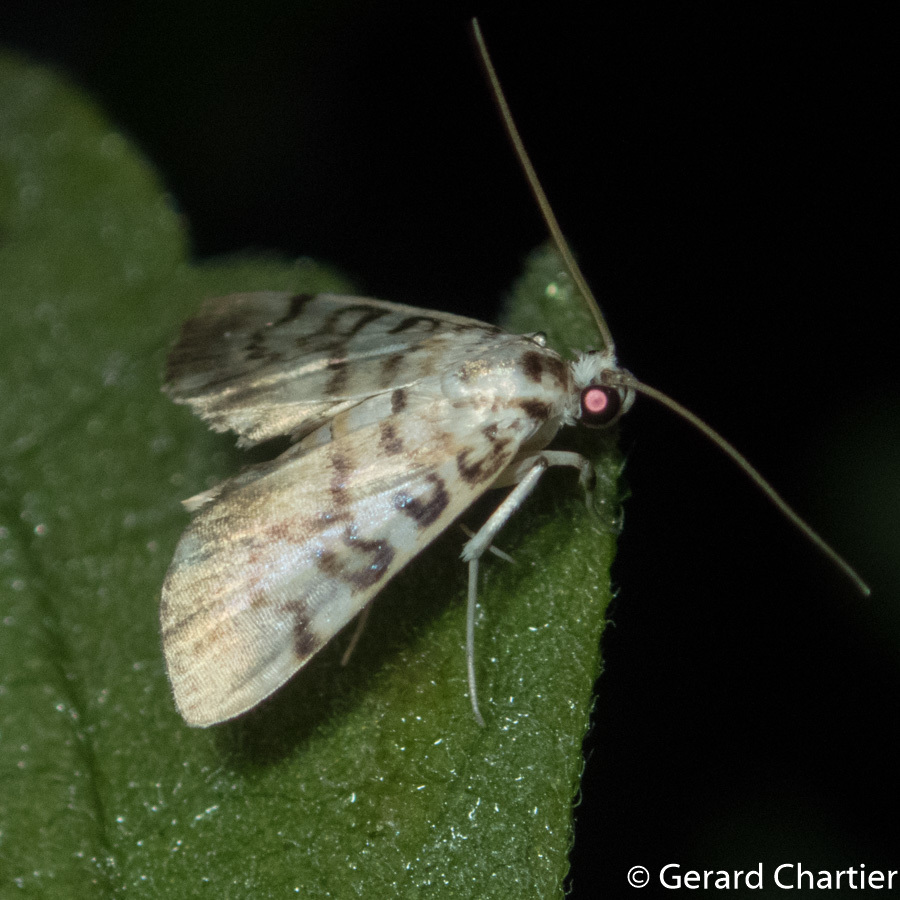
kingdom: Animalia
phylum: Arthropoda
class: Insecta
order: Lepidoptera
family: Crambidae
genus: Tabidia
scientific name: Tabidia aculealis
